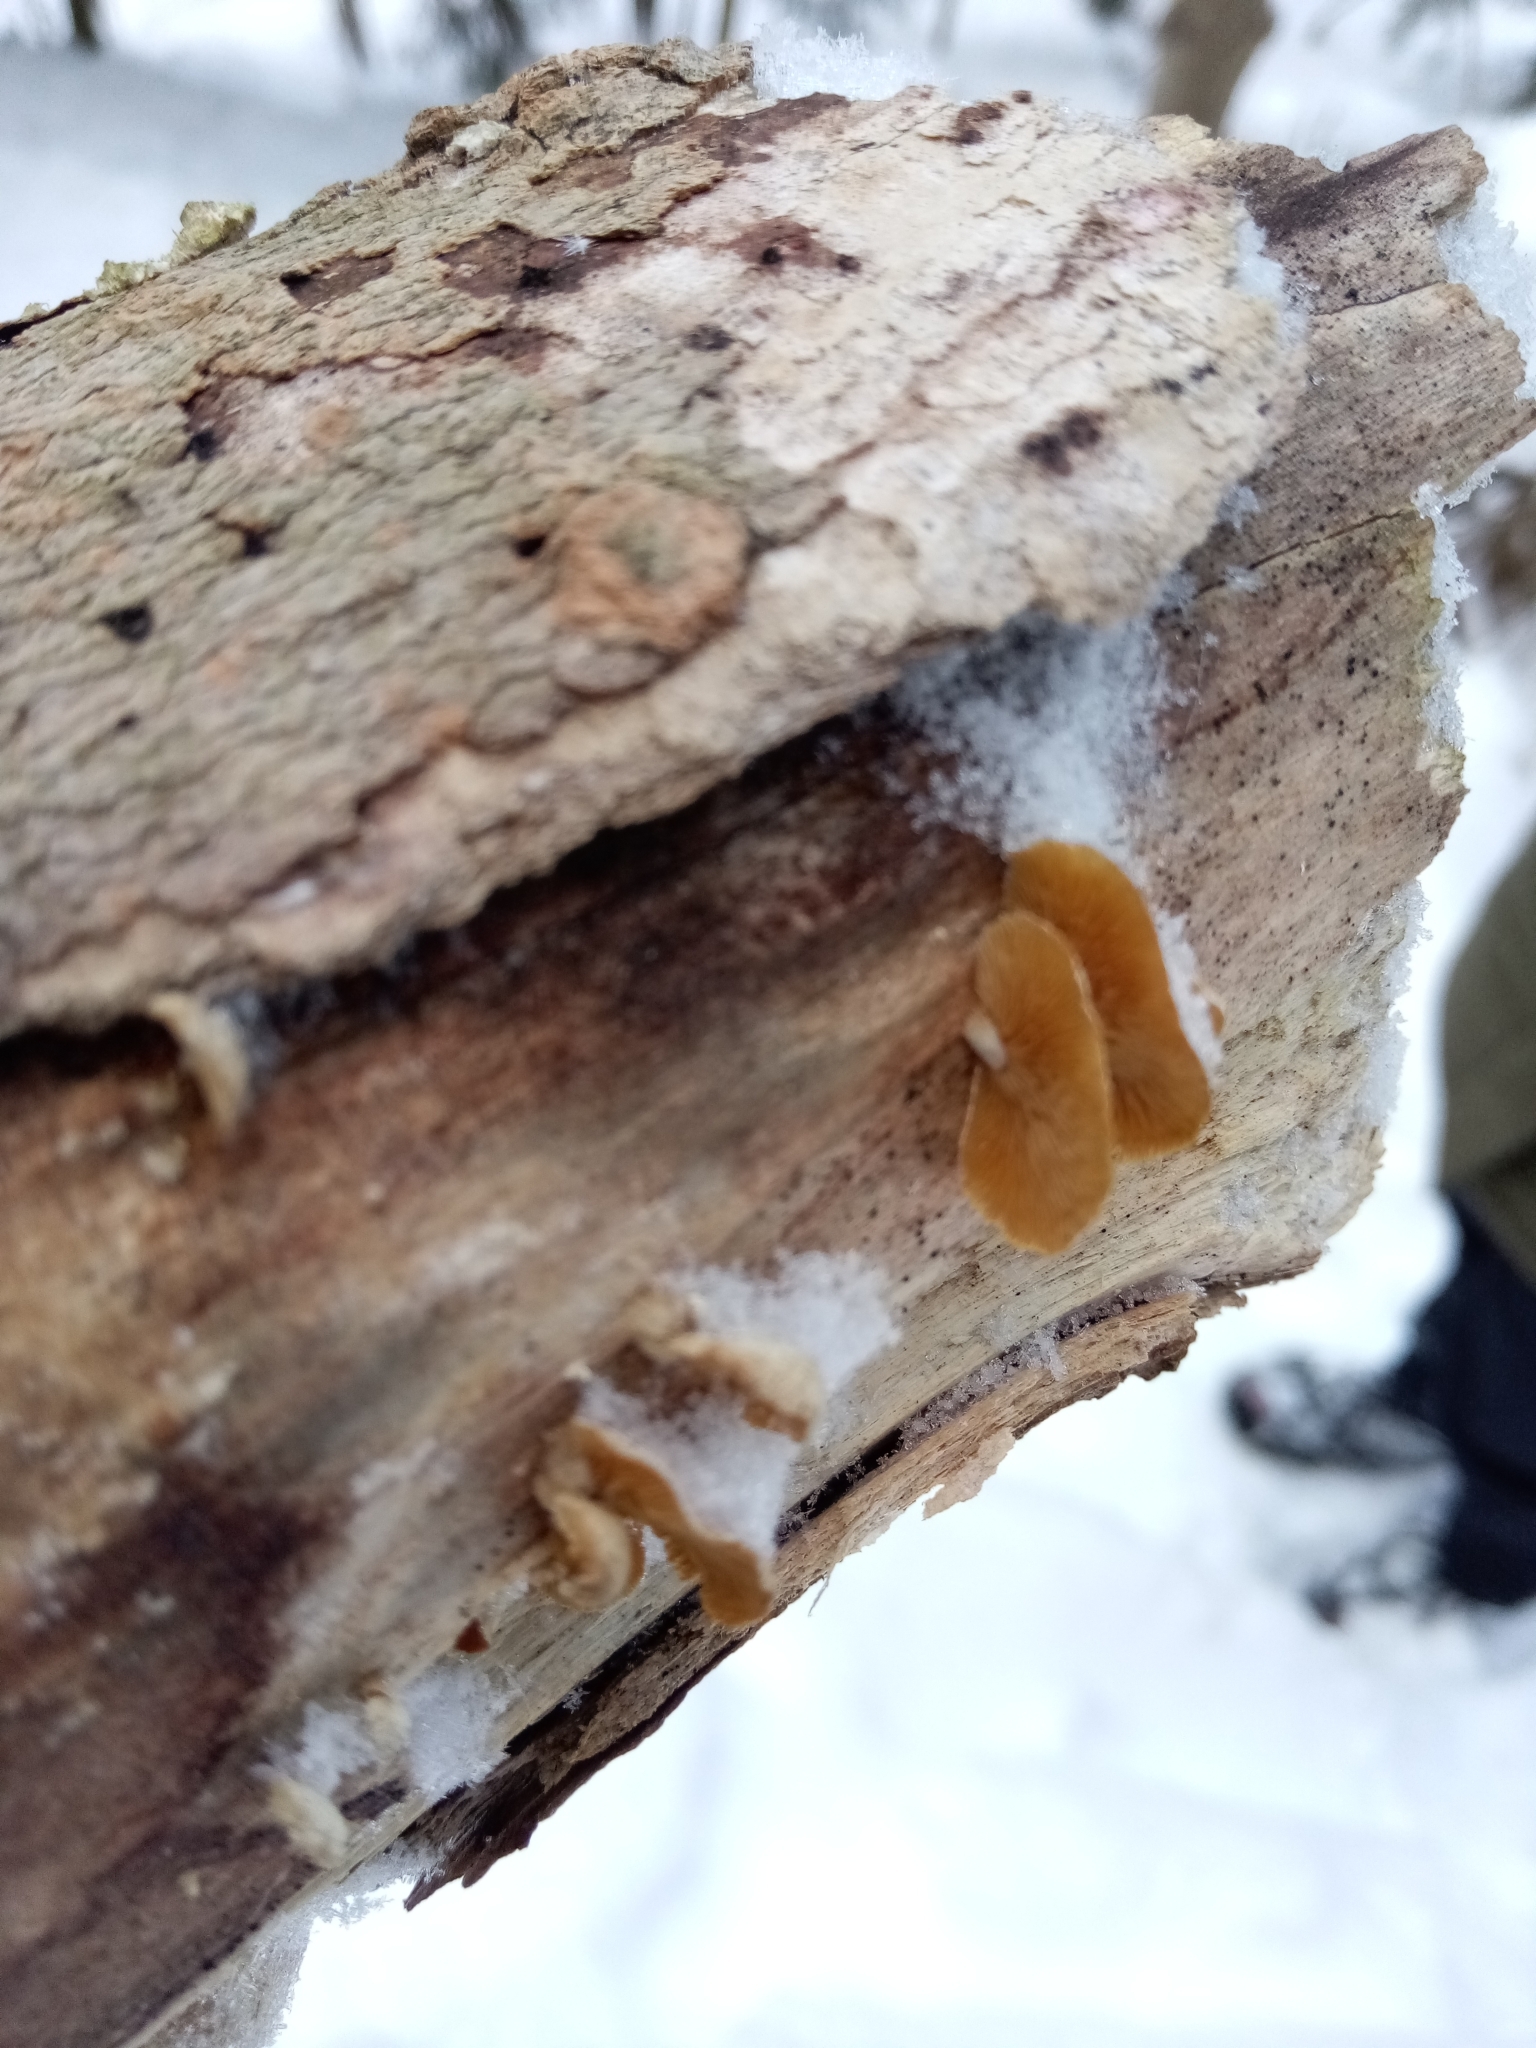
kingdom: Fungi
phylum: Basidiomycota
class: Agaricomycetes
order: Agaricales
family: Mycenaceae
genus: Panellus
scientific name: Panellus stipticus
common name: Bitter oysterling
